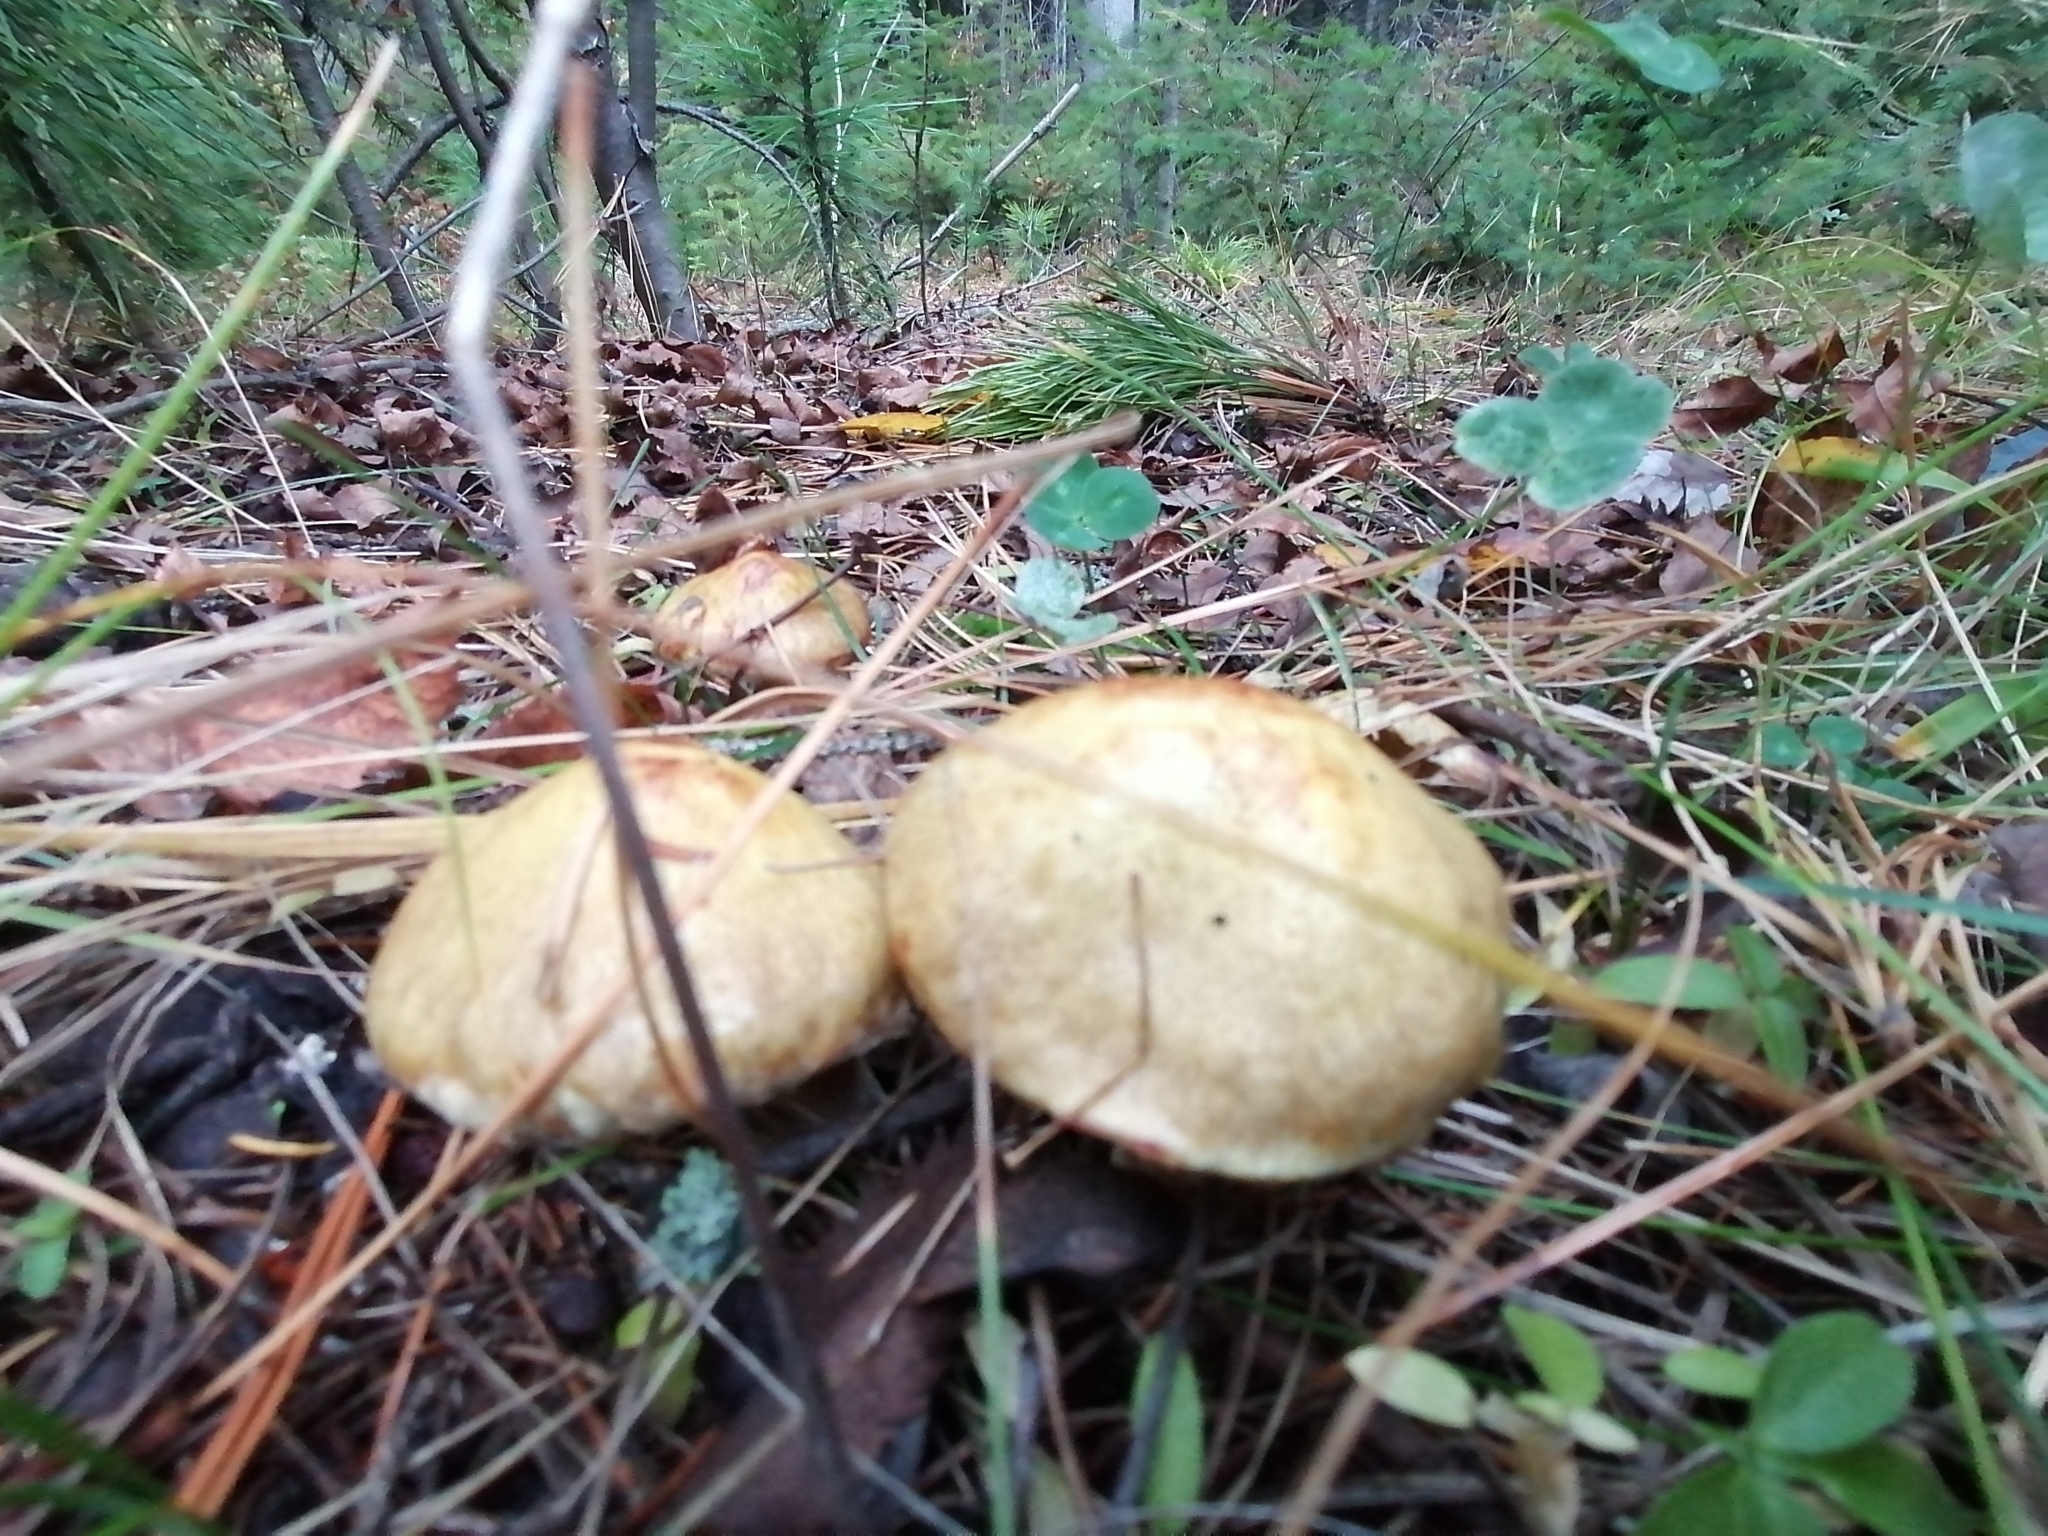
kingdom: Fungi
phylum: Basidiomycota
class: Agaricomycetes
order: Boletales
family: Suillaceae
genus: Suillus
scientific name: Suillus americanus
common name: Chicken fat mushroom
